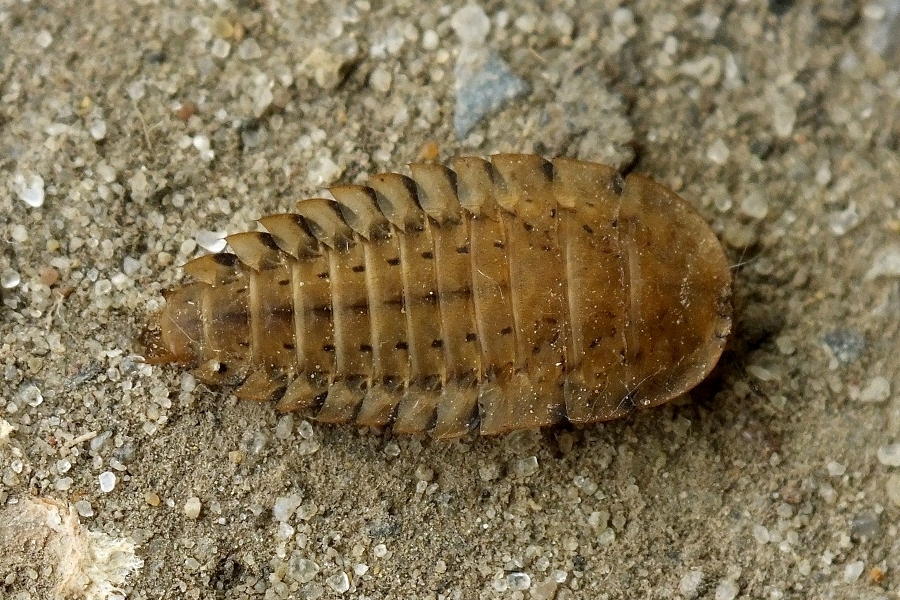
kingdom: Animalia
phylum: Arthropoda
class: Insecta
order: Coleoptera
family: Staphylinidae
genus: Silpha
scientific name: Silpha obscura
